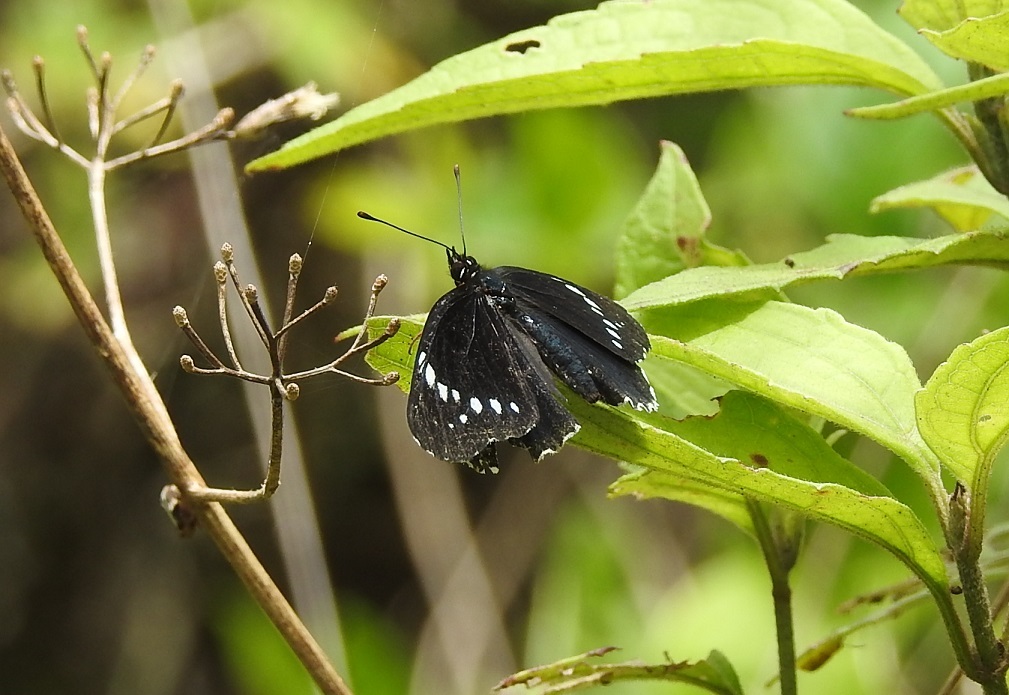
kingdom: Animalia
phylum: Arthropoda
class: Insecta
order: Lepidoptera
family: Nymphalidae
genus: Chlosyne
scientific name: Chlosyne hippodrome
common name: Simple patch
